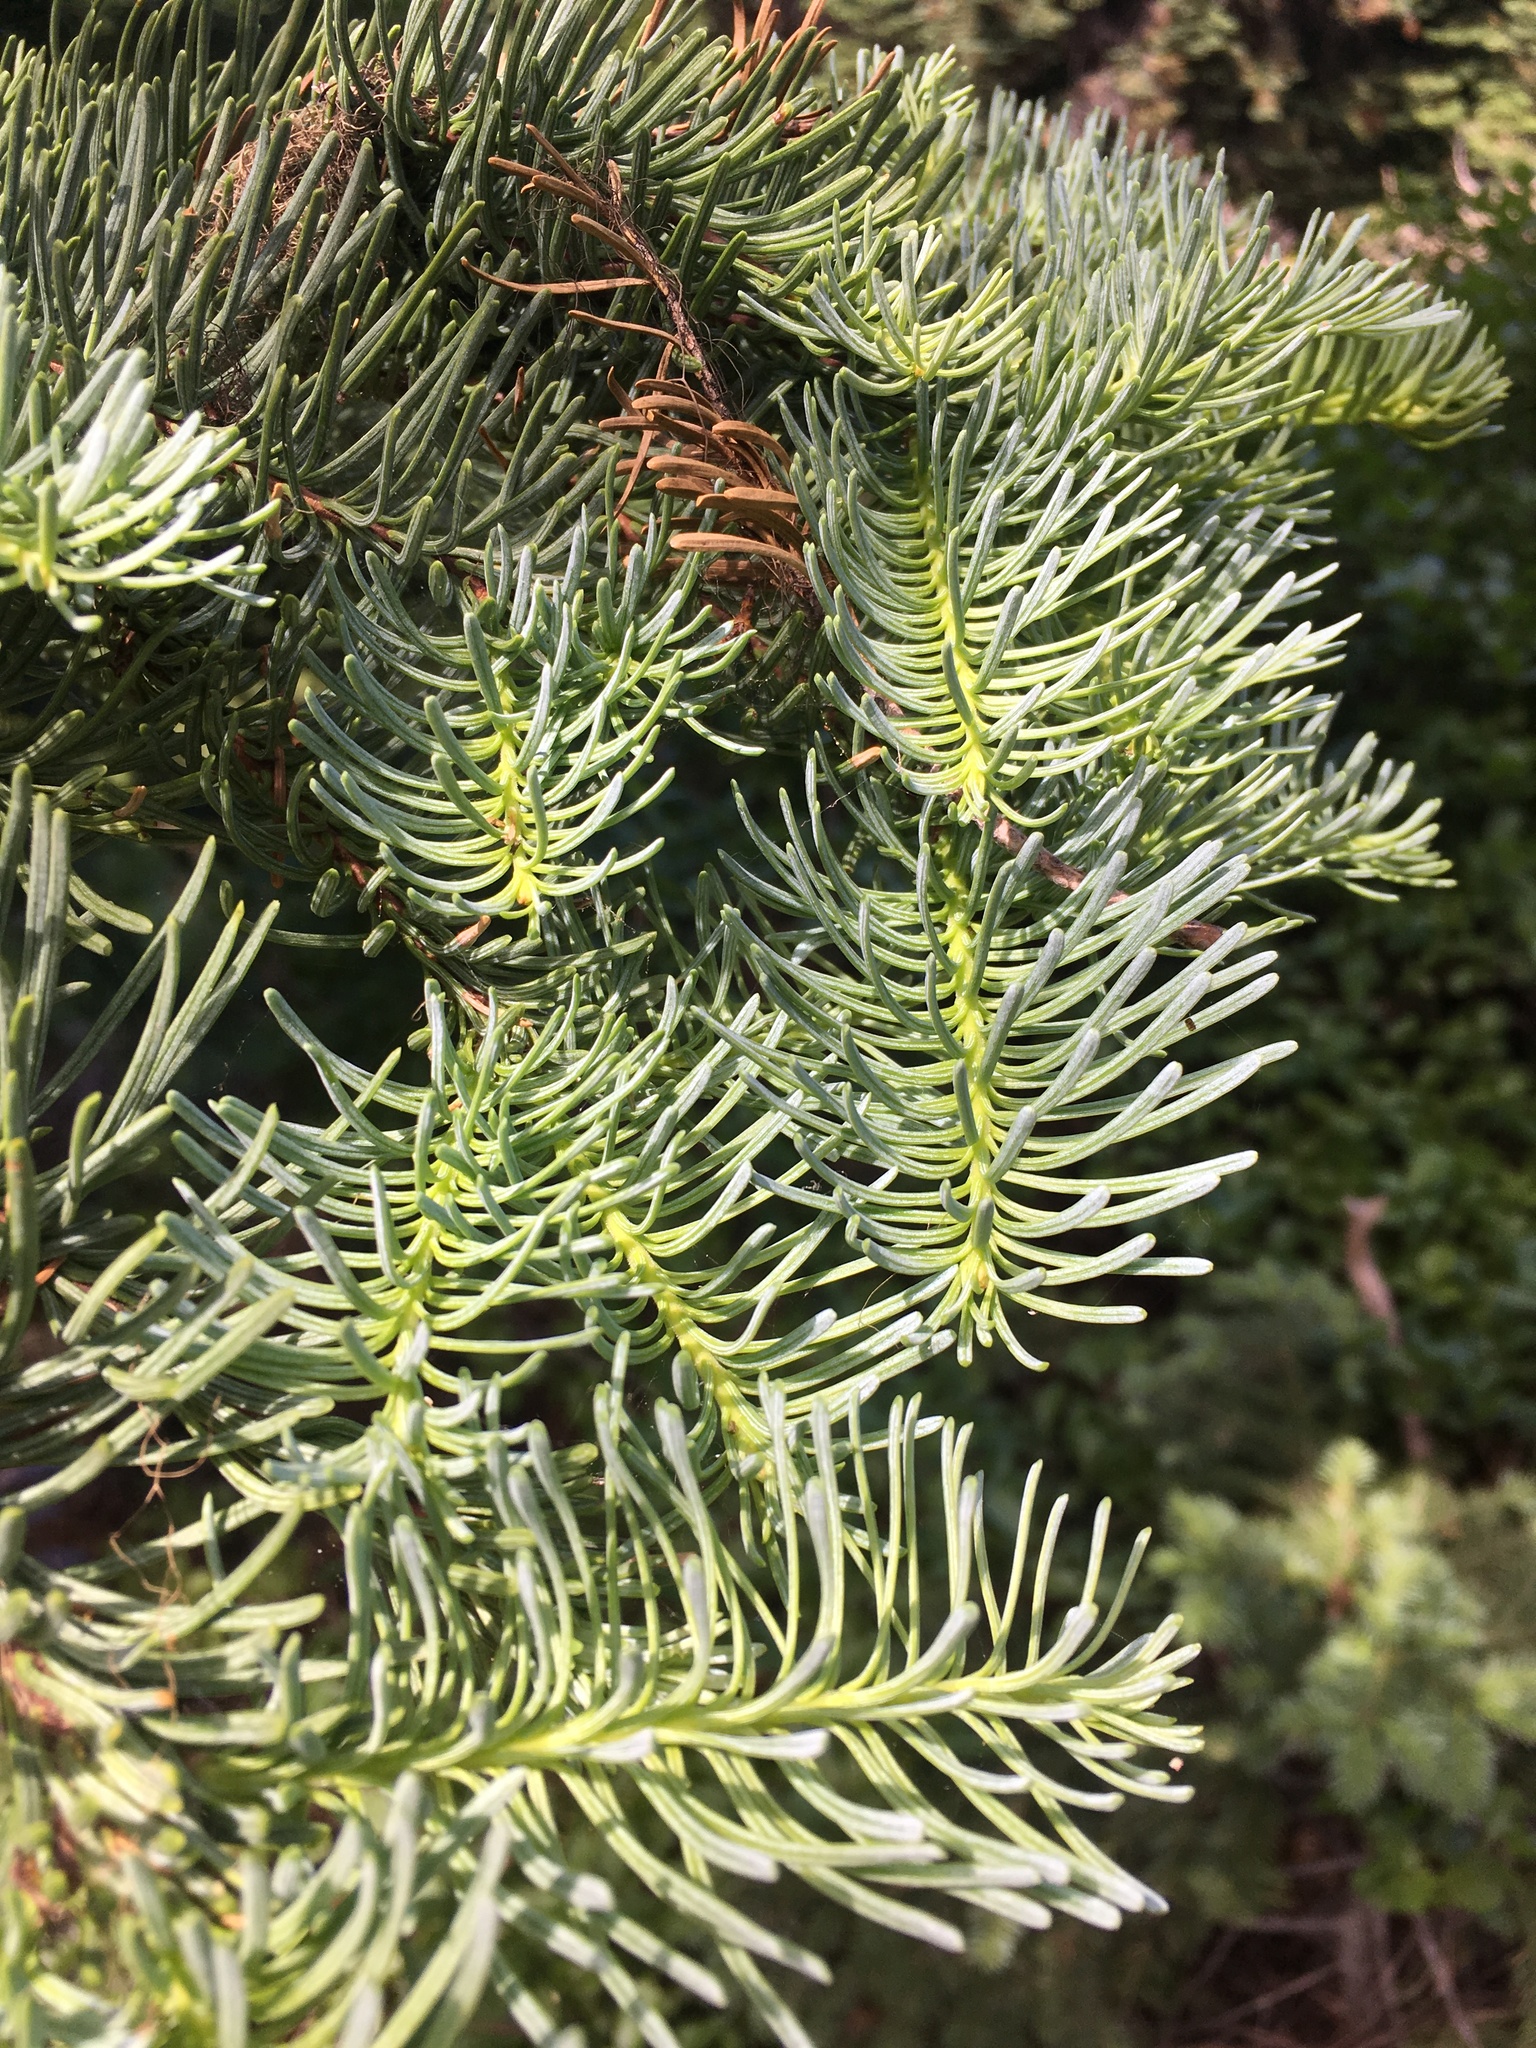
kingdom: Plantae
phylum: Tracheophyta
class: Pinopsida
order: Pinales
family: Pinaceae
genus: Abies
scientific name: Abies procera
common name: Noble fir
